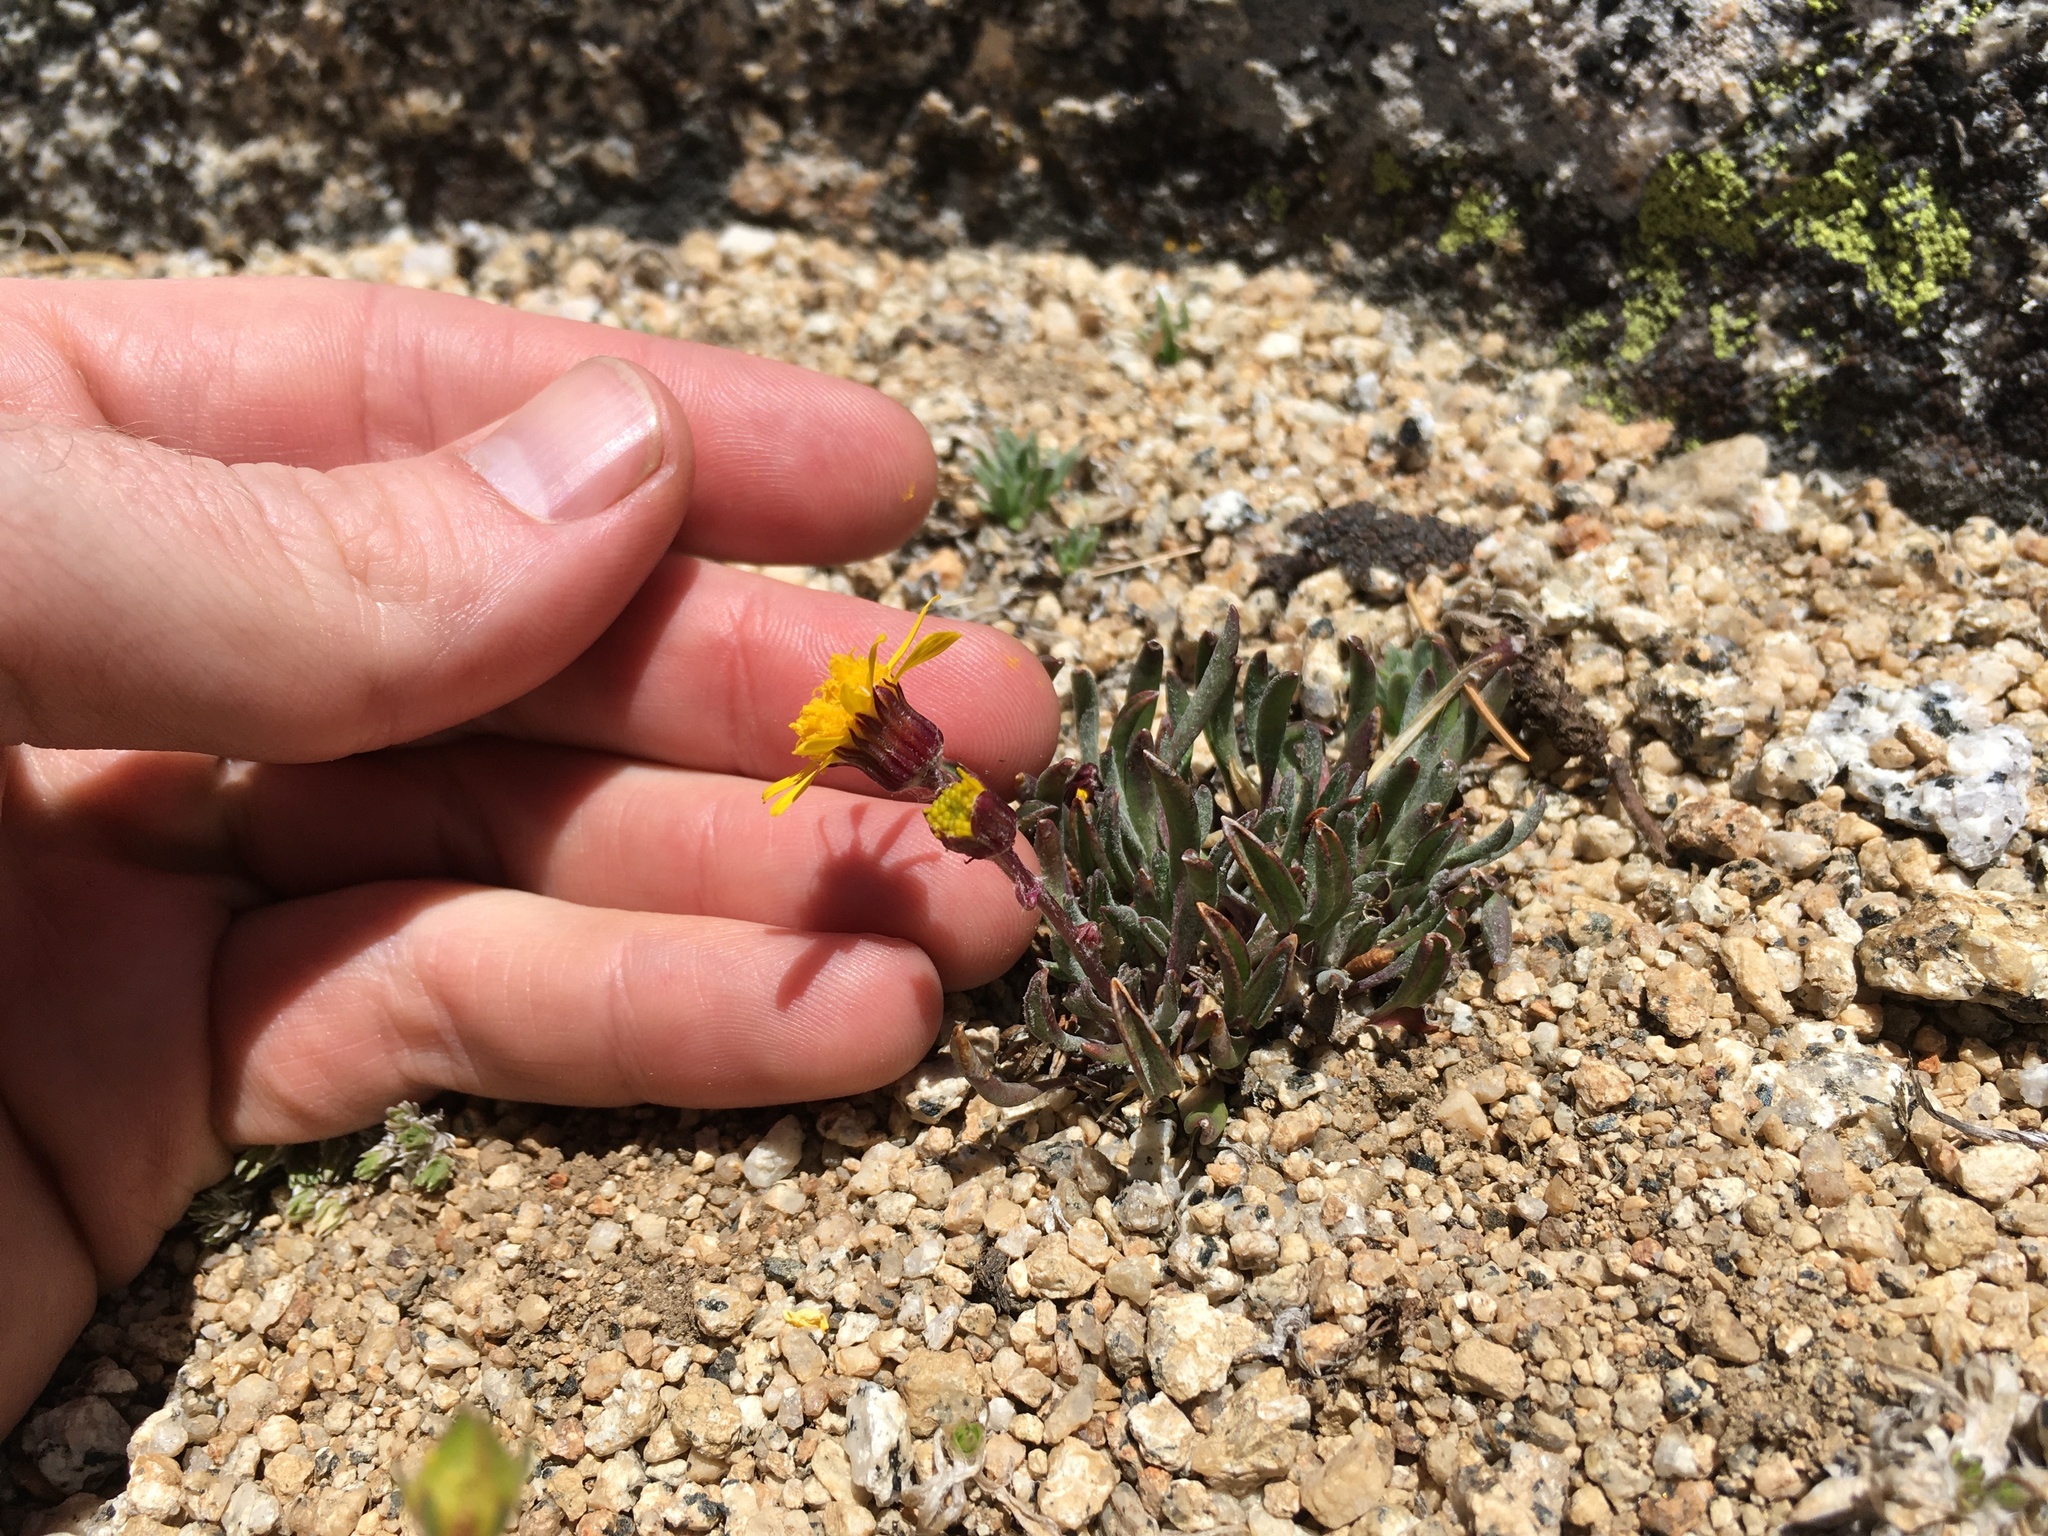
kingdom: Plantae
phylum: Tracheophyta
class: Magnoliopsida
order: Asterales
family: Asteraceae
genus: Packera
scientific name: Packera werneriifolia
